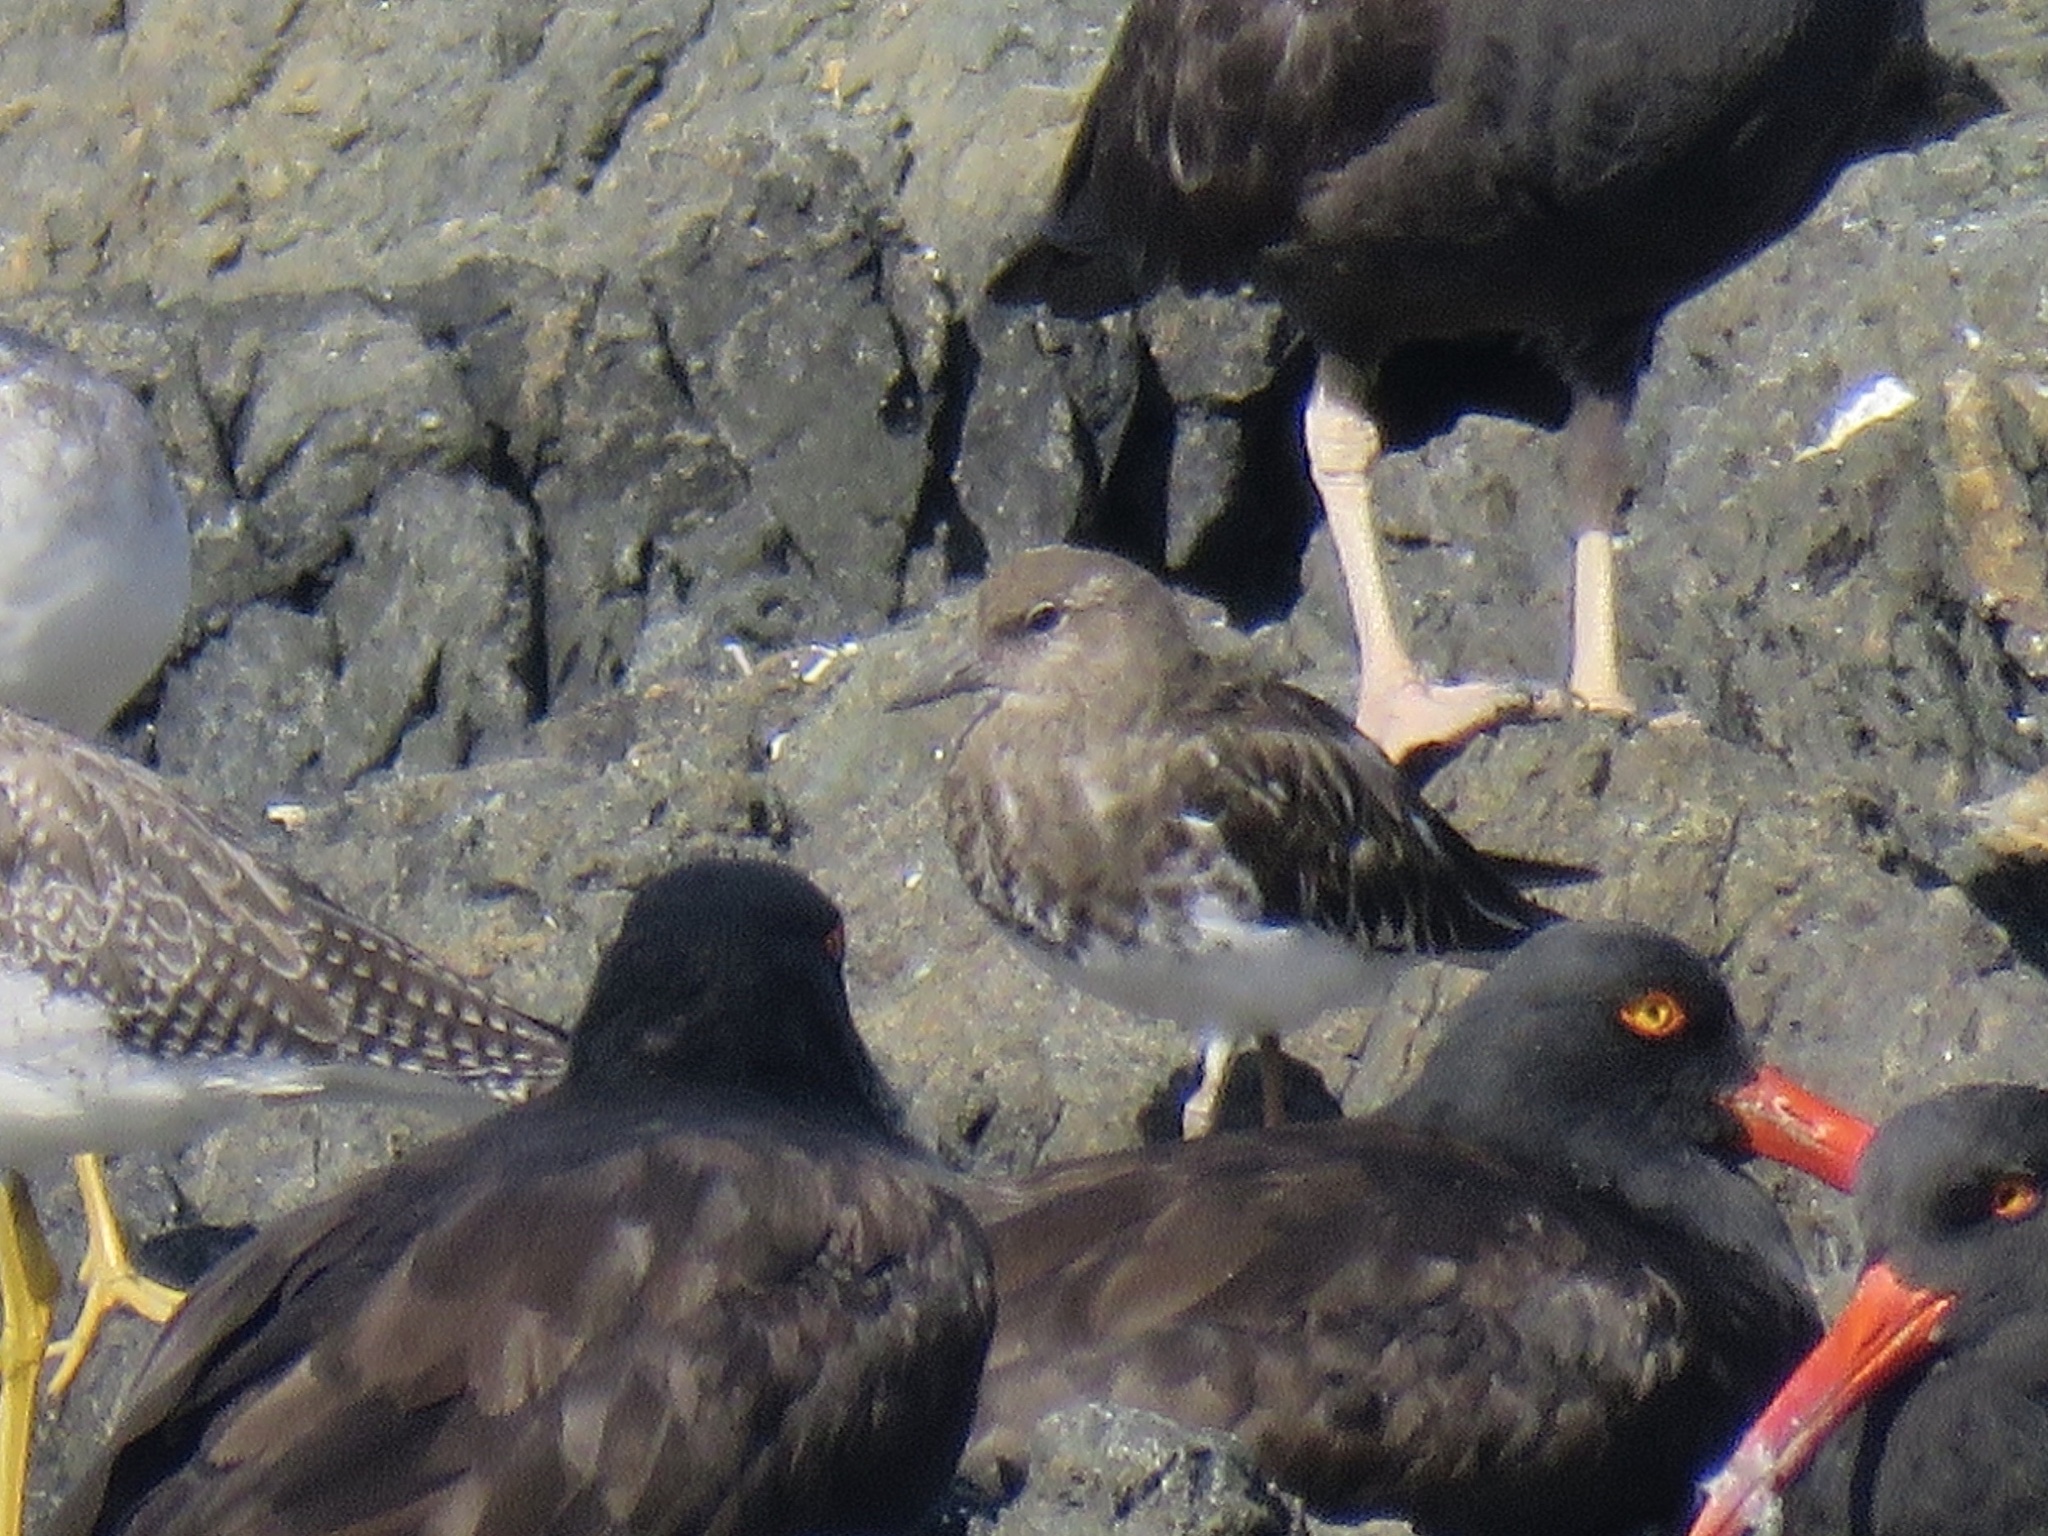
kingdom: Animalia
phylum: Chordata
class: Aves
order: Charadriiformes
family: Scolopacidae
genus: Arenaria
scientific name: Arenaria melanocephala
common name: Black turnstone
